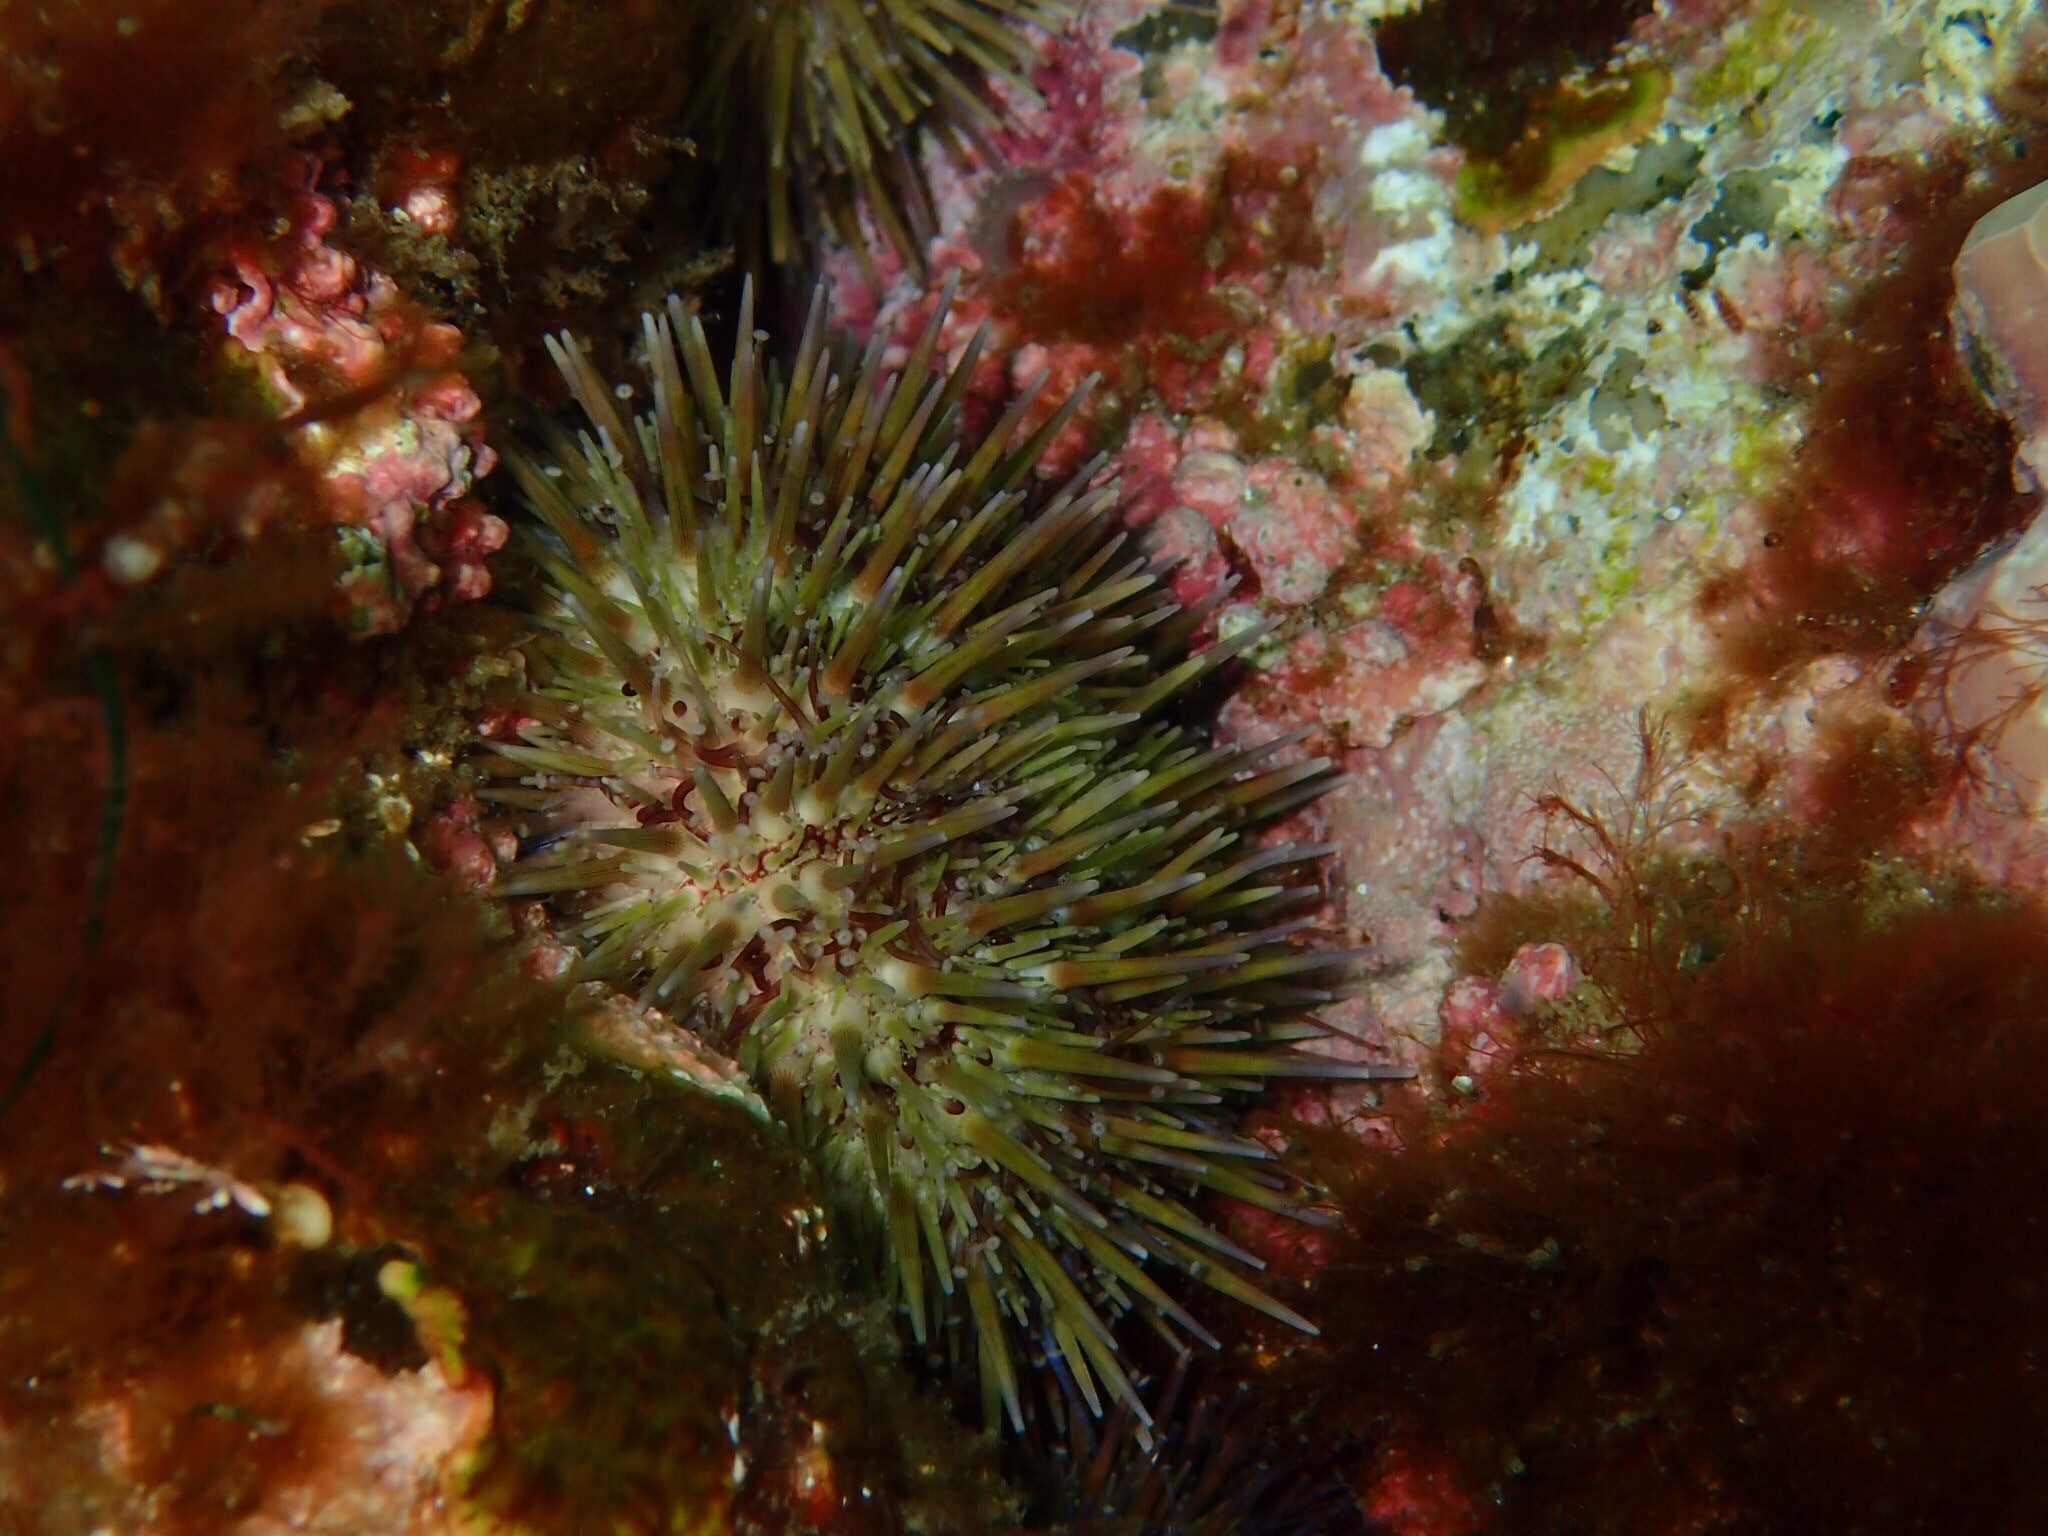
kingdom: Animalia
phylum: Echinodermata
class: Echinoidea
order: Camarodonta
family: Strongylocentrotidae
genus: Strongylocentrotus
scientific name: Strongylocentrotus droebachiensis
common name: Northern sea urchin
